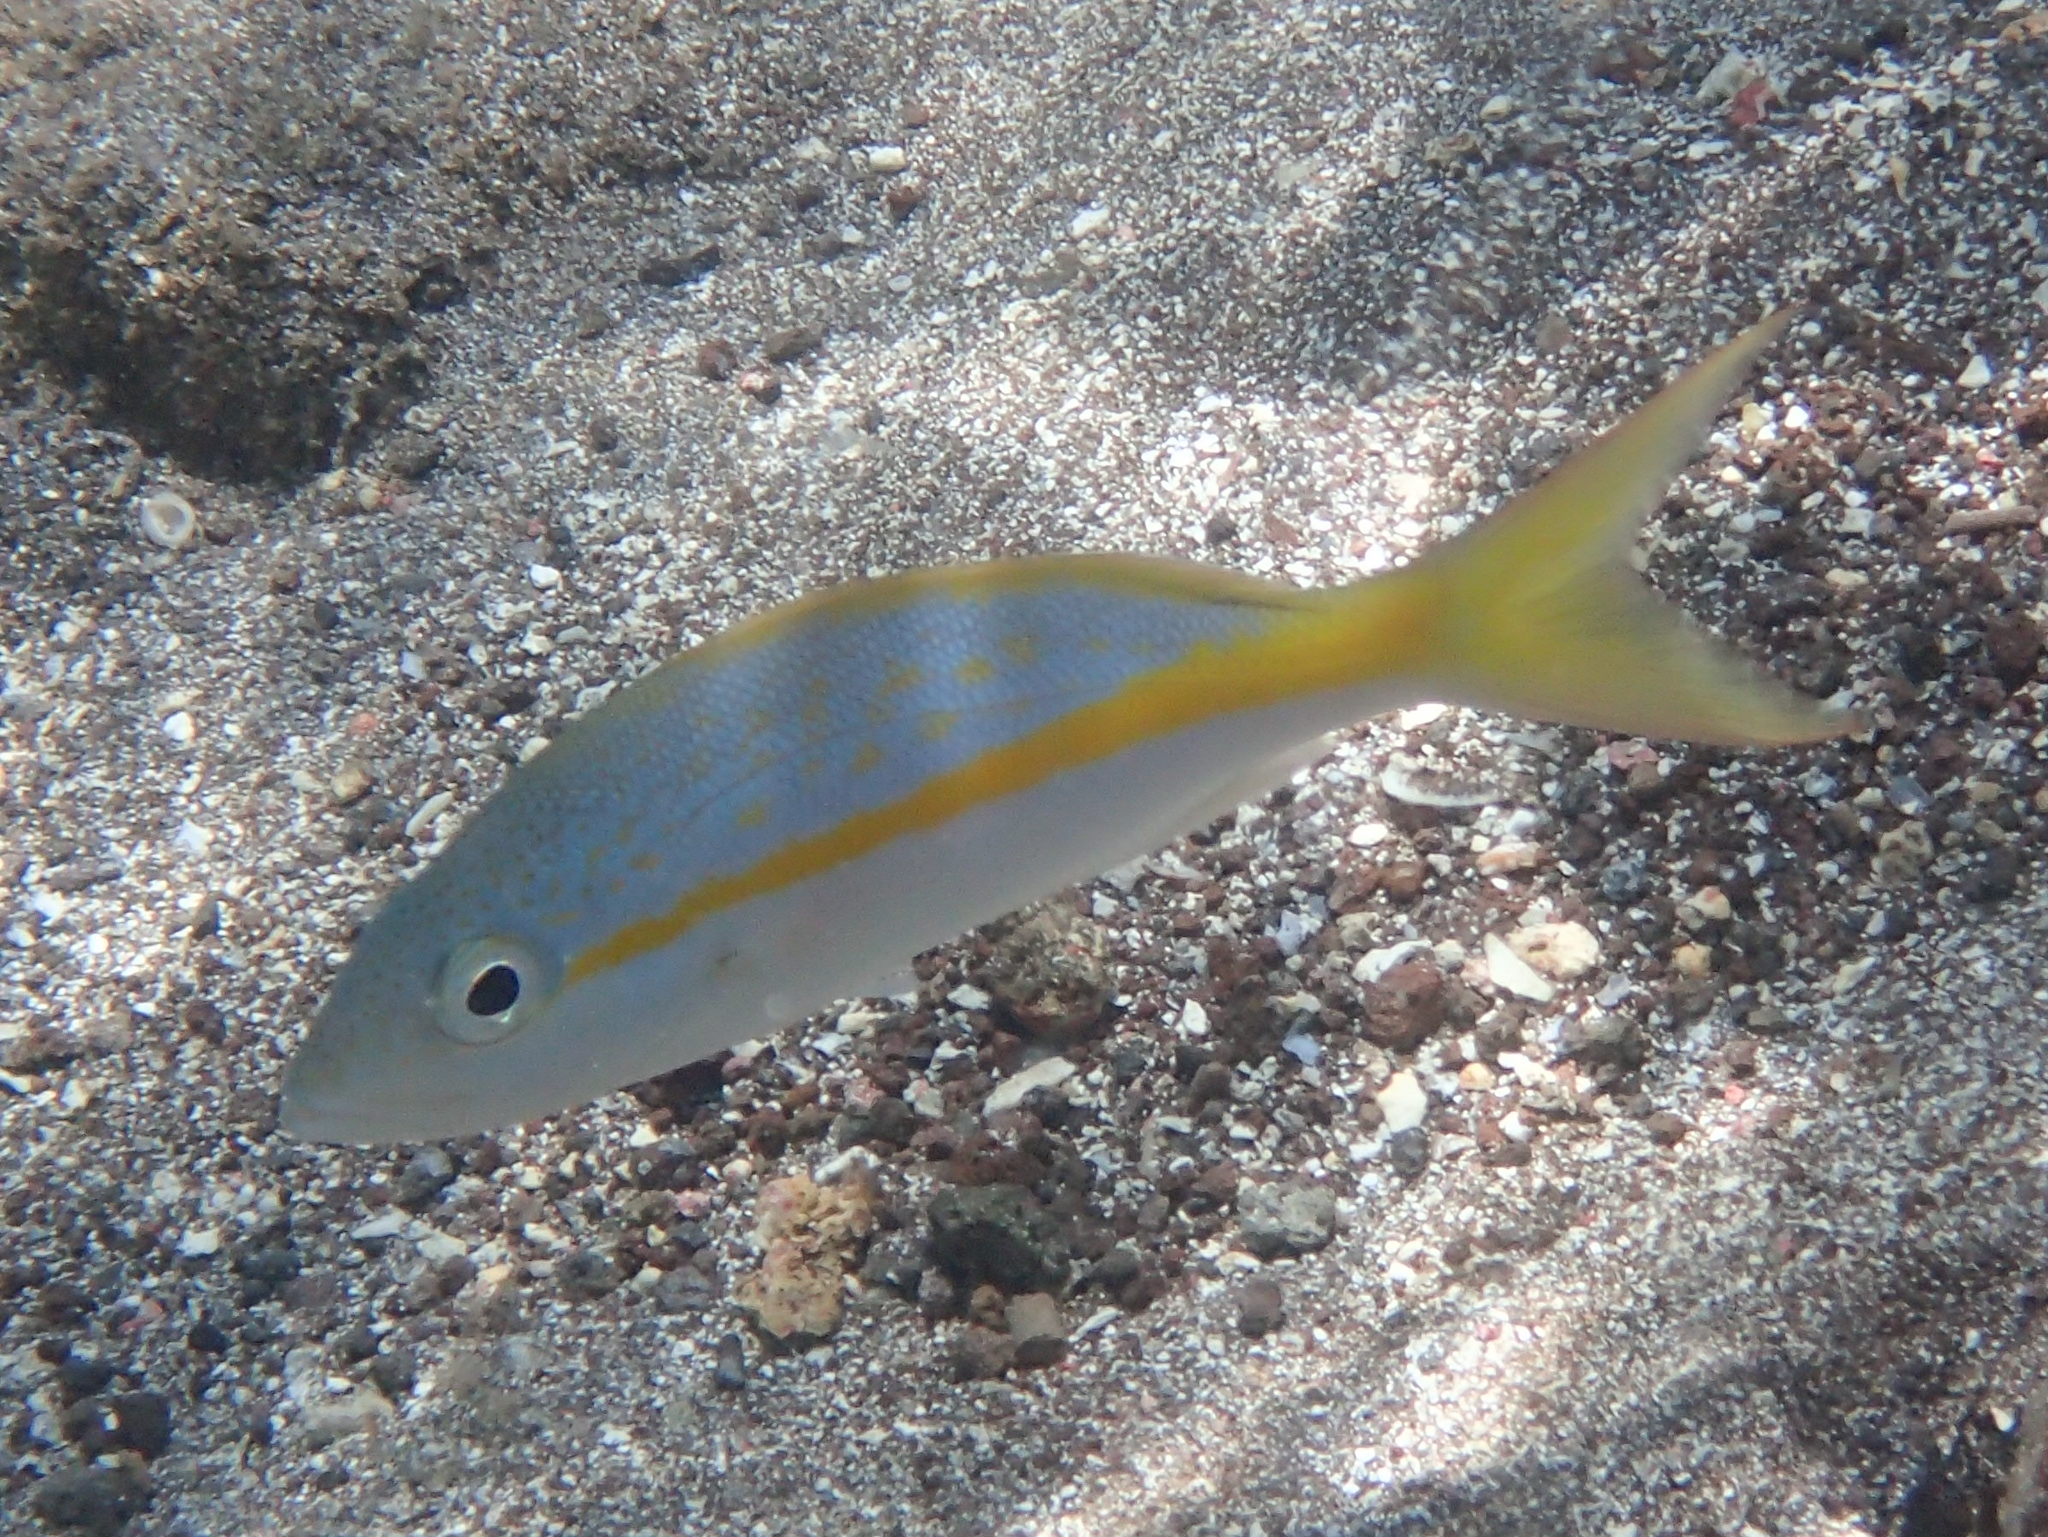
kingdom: Animalia
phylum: Chordata
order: Perciformes
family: Lutjanidae
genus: Ocyurus
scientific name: Ocyurus chrysurus
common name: Yellowtail snapper
